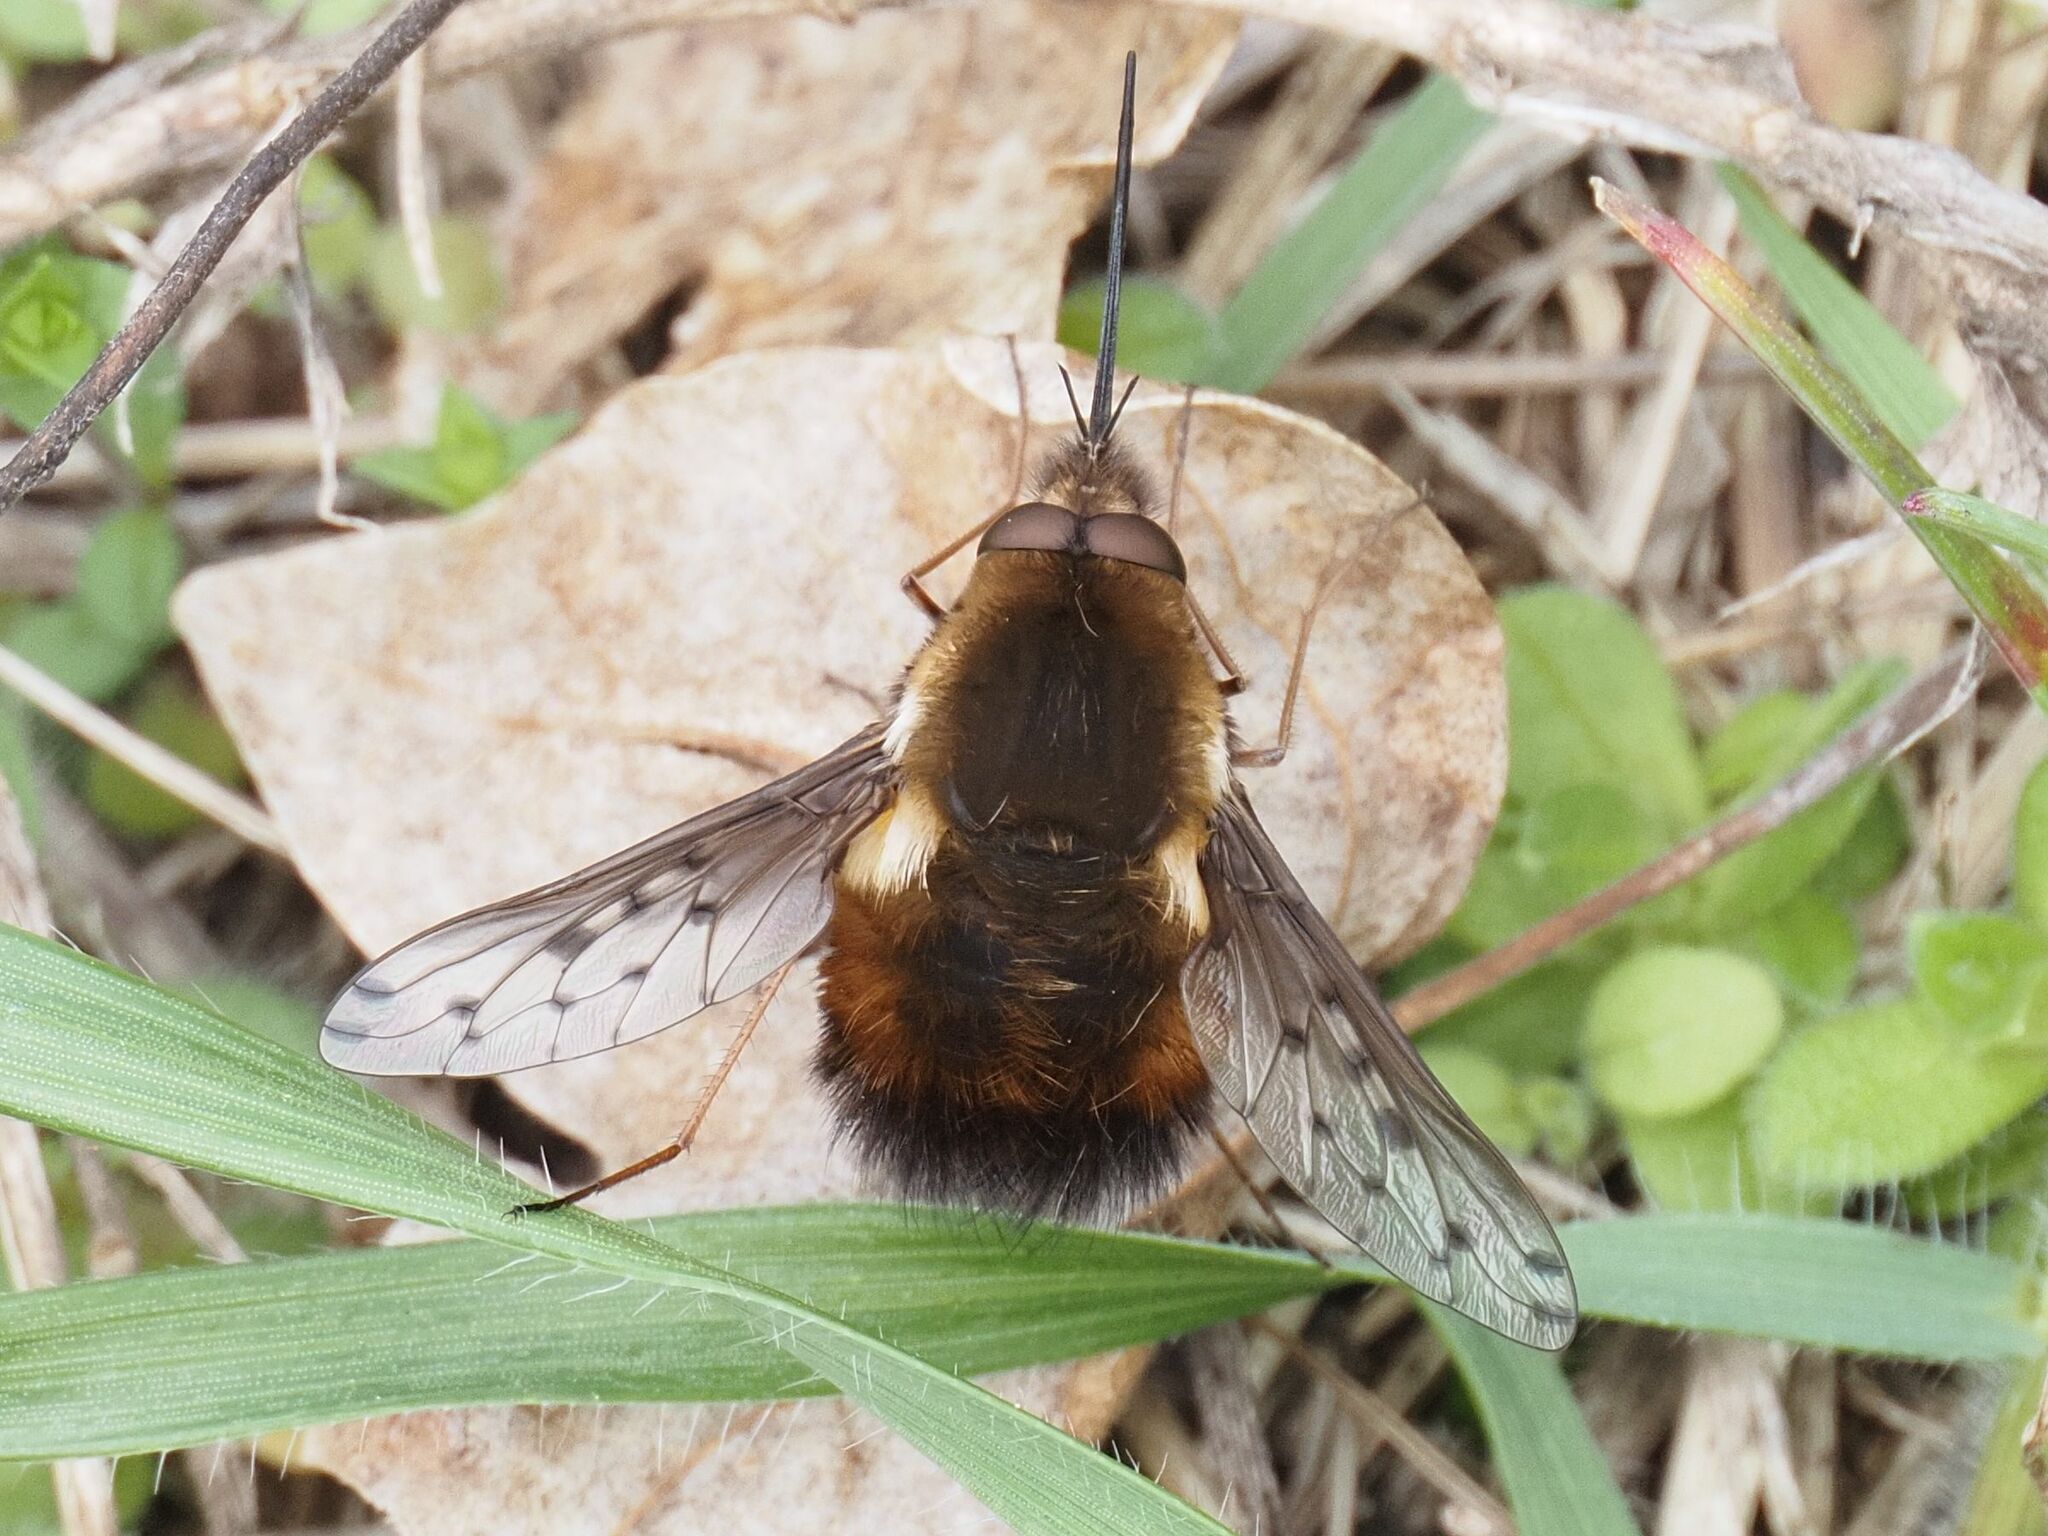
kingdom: Animalia
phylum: Arthropoda
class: Insecta
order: Diptera
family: Bombyliidae
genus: Bombylius
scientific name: Bombylius discolor
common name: Dotted bee-fly
